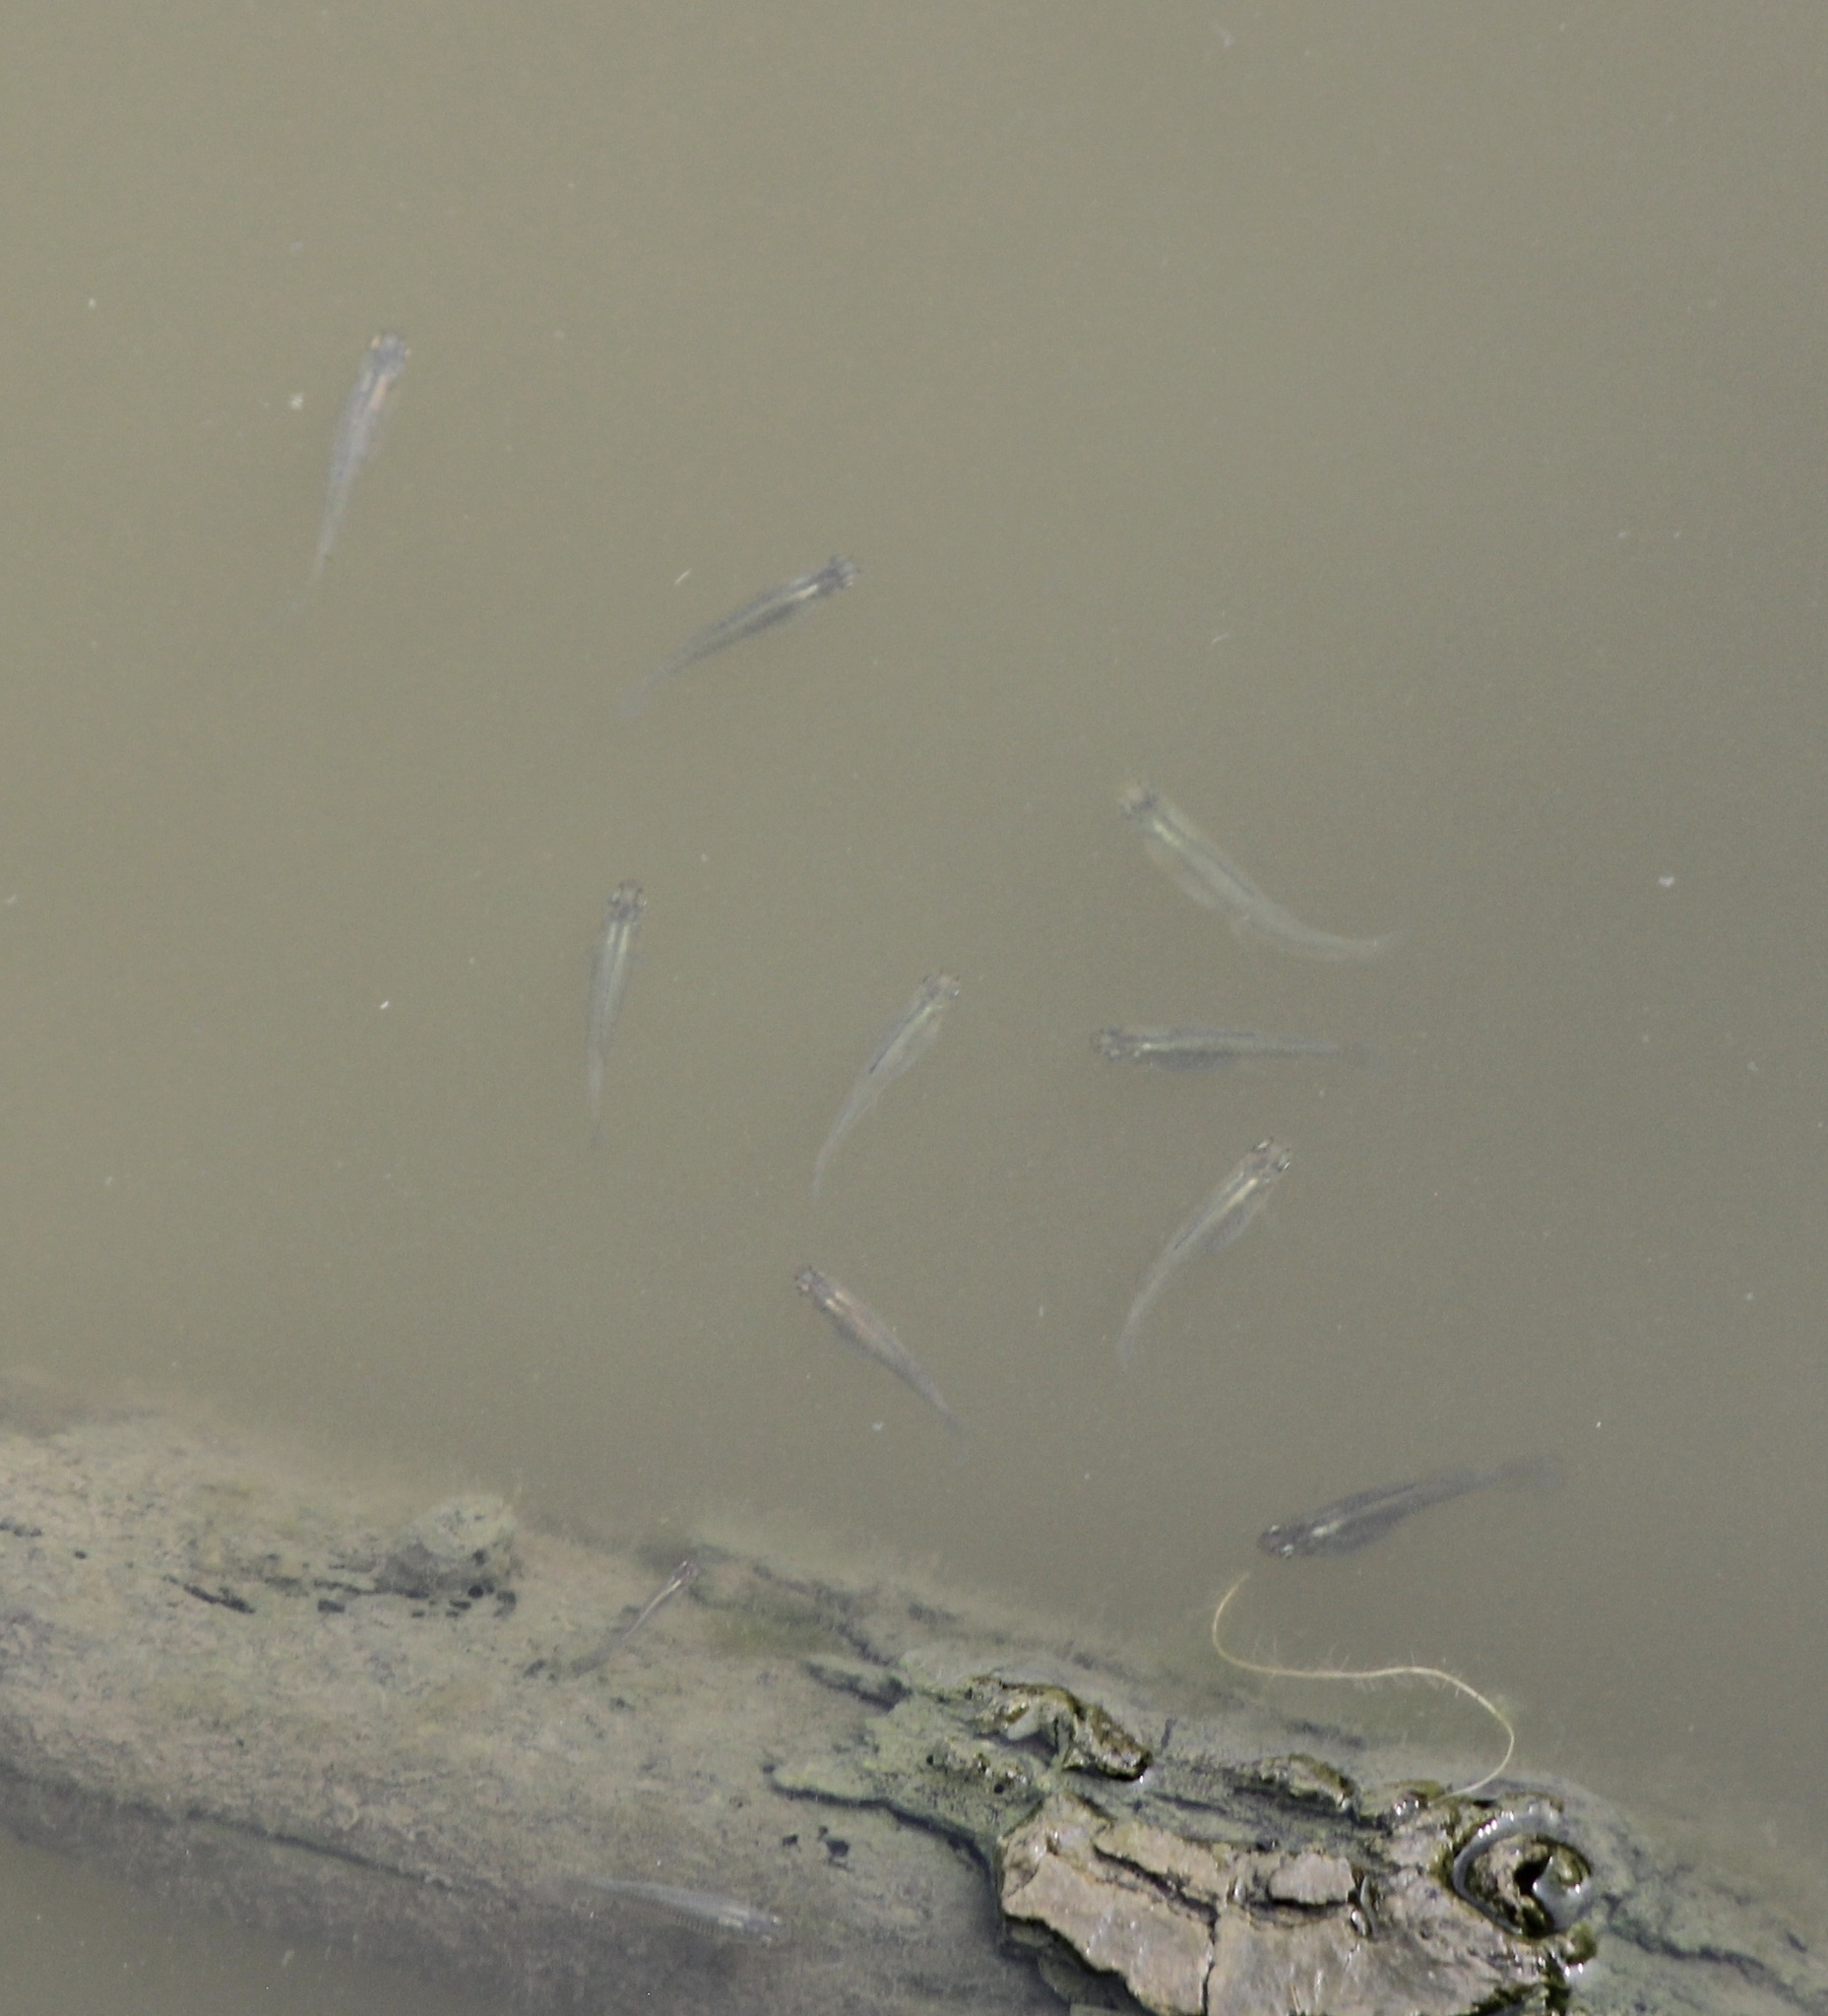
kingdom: Animalia
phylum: Chordata
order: Cyprinodontiformes
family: Poeciliidae
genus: Gambusia
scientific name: Gambusia affinis
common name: Mosquitofish
